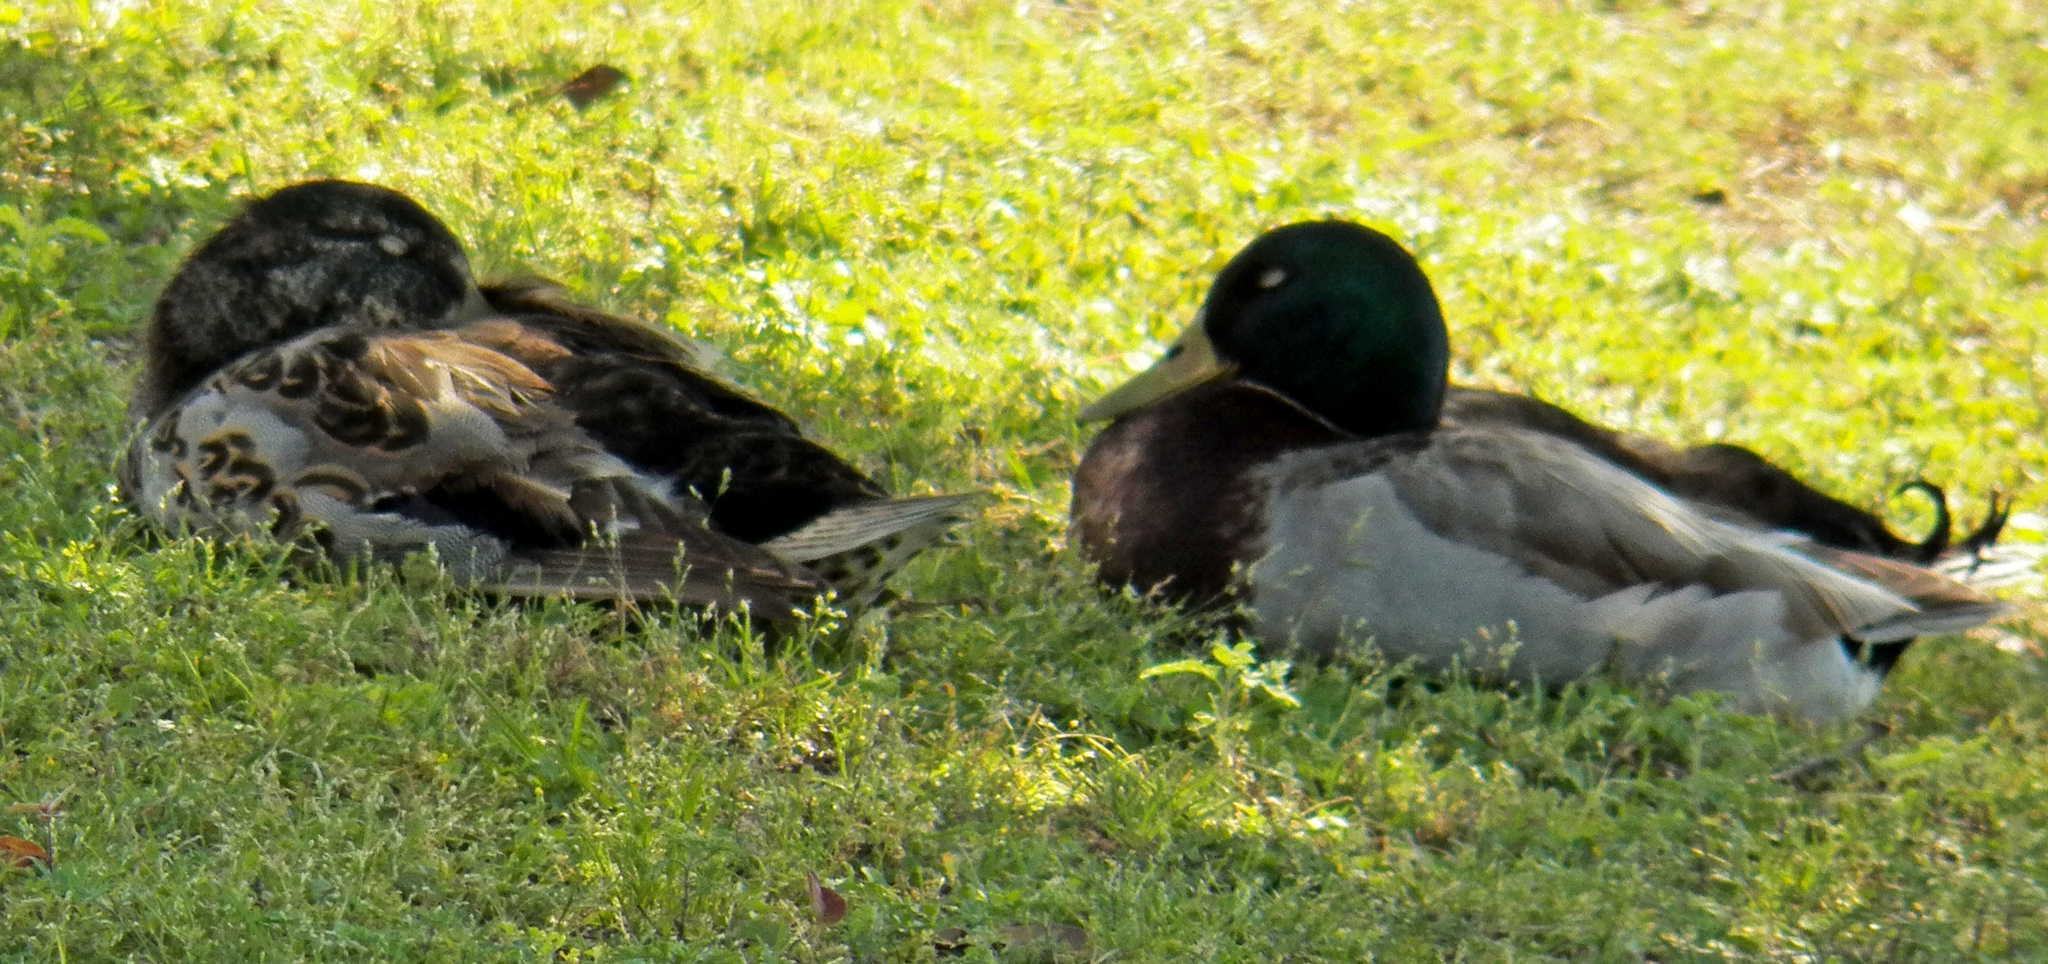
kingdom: Animalia
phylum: Chordata
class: Aves
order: Anseriformes
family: Anatidae
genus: Anas
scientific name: Anas platyrhynchos
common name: Mallard
